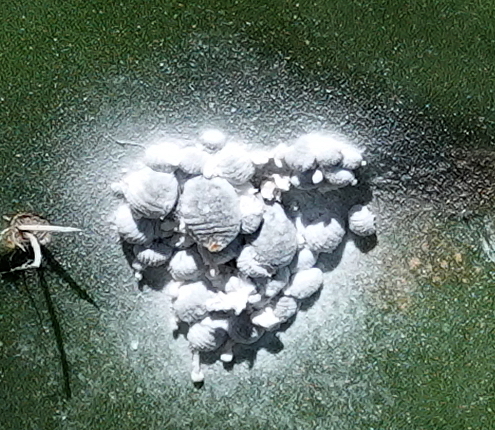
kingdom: Animalia
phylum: Arthropoda
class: Insecta
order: Hemiptera
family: Dactylopiidae
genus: Dactylopius
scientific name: Dactylopius coccus
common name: Cochineal
